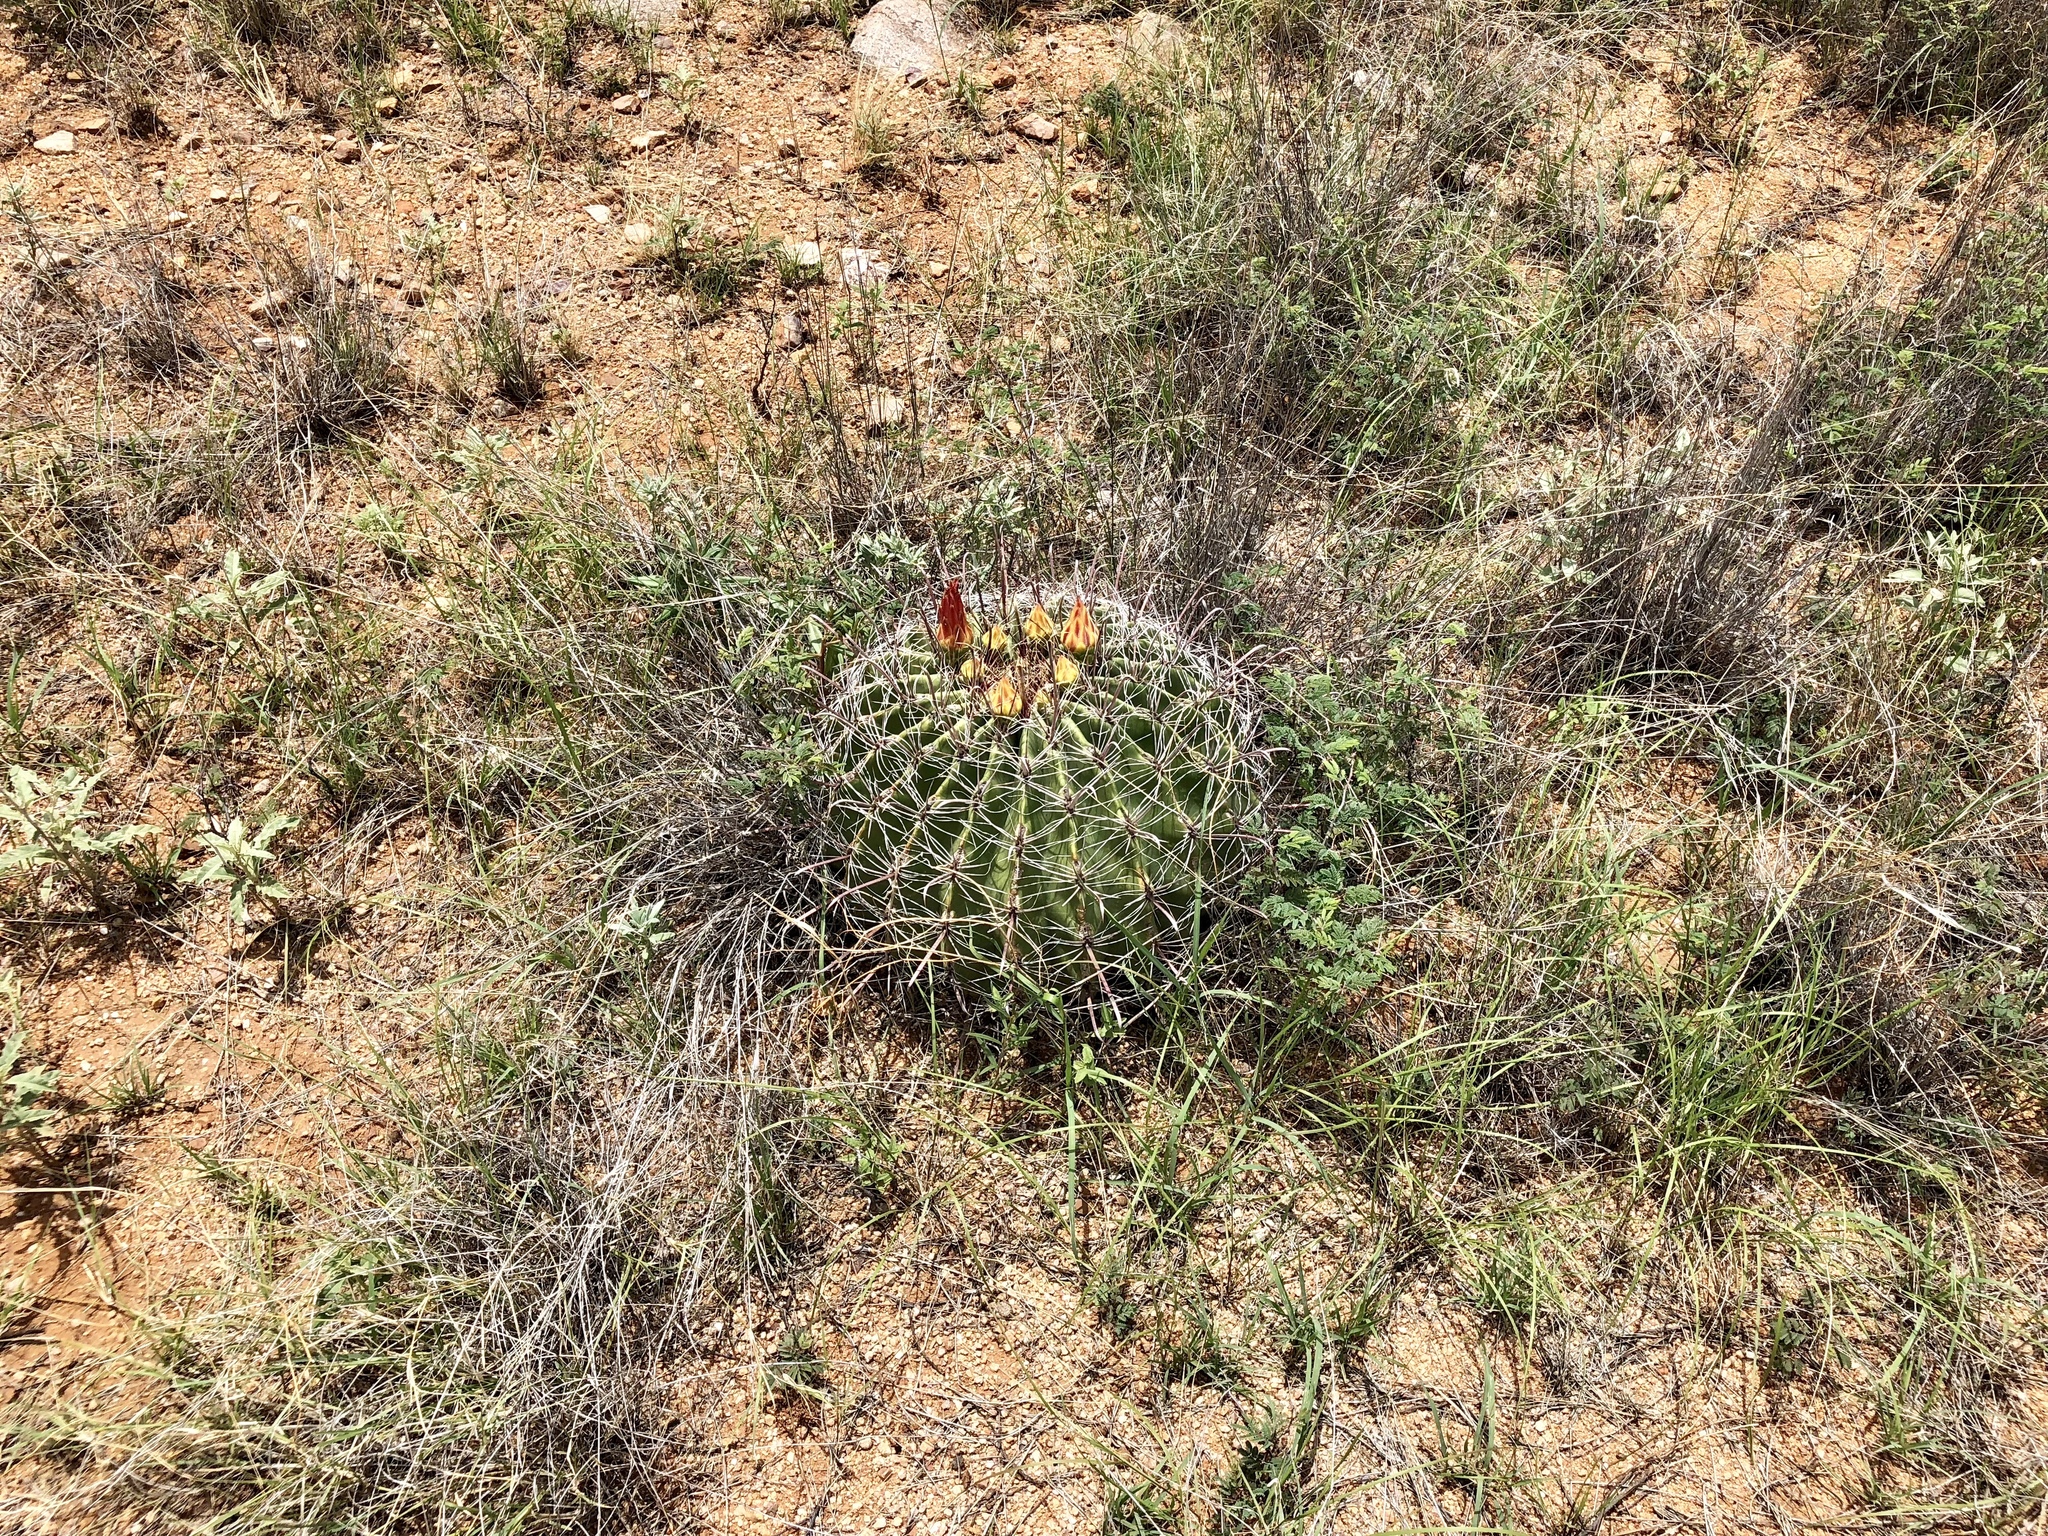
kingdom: Plantae
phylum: Tracheophyta
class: Magnoliopsida
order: Caryophyllales
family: Cactaceae
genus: Ferocactus
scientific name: Ferocactus wislizeni
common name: Candy barrel cactus
